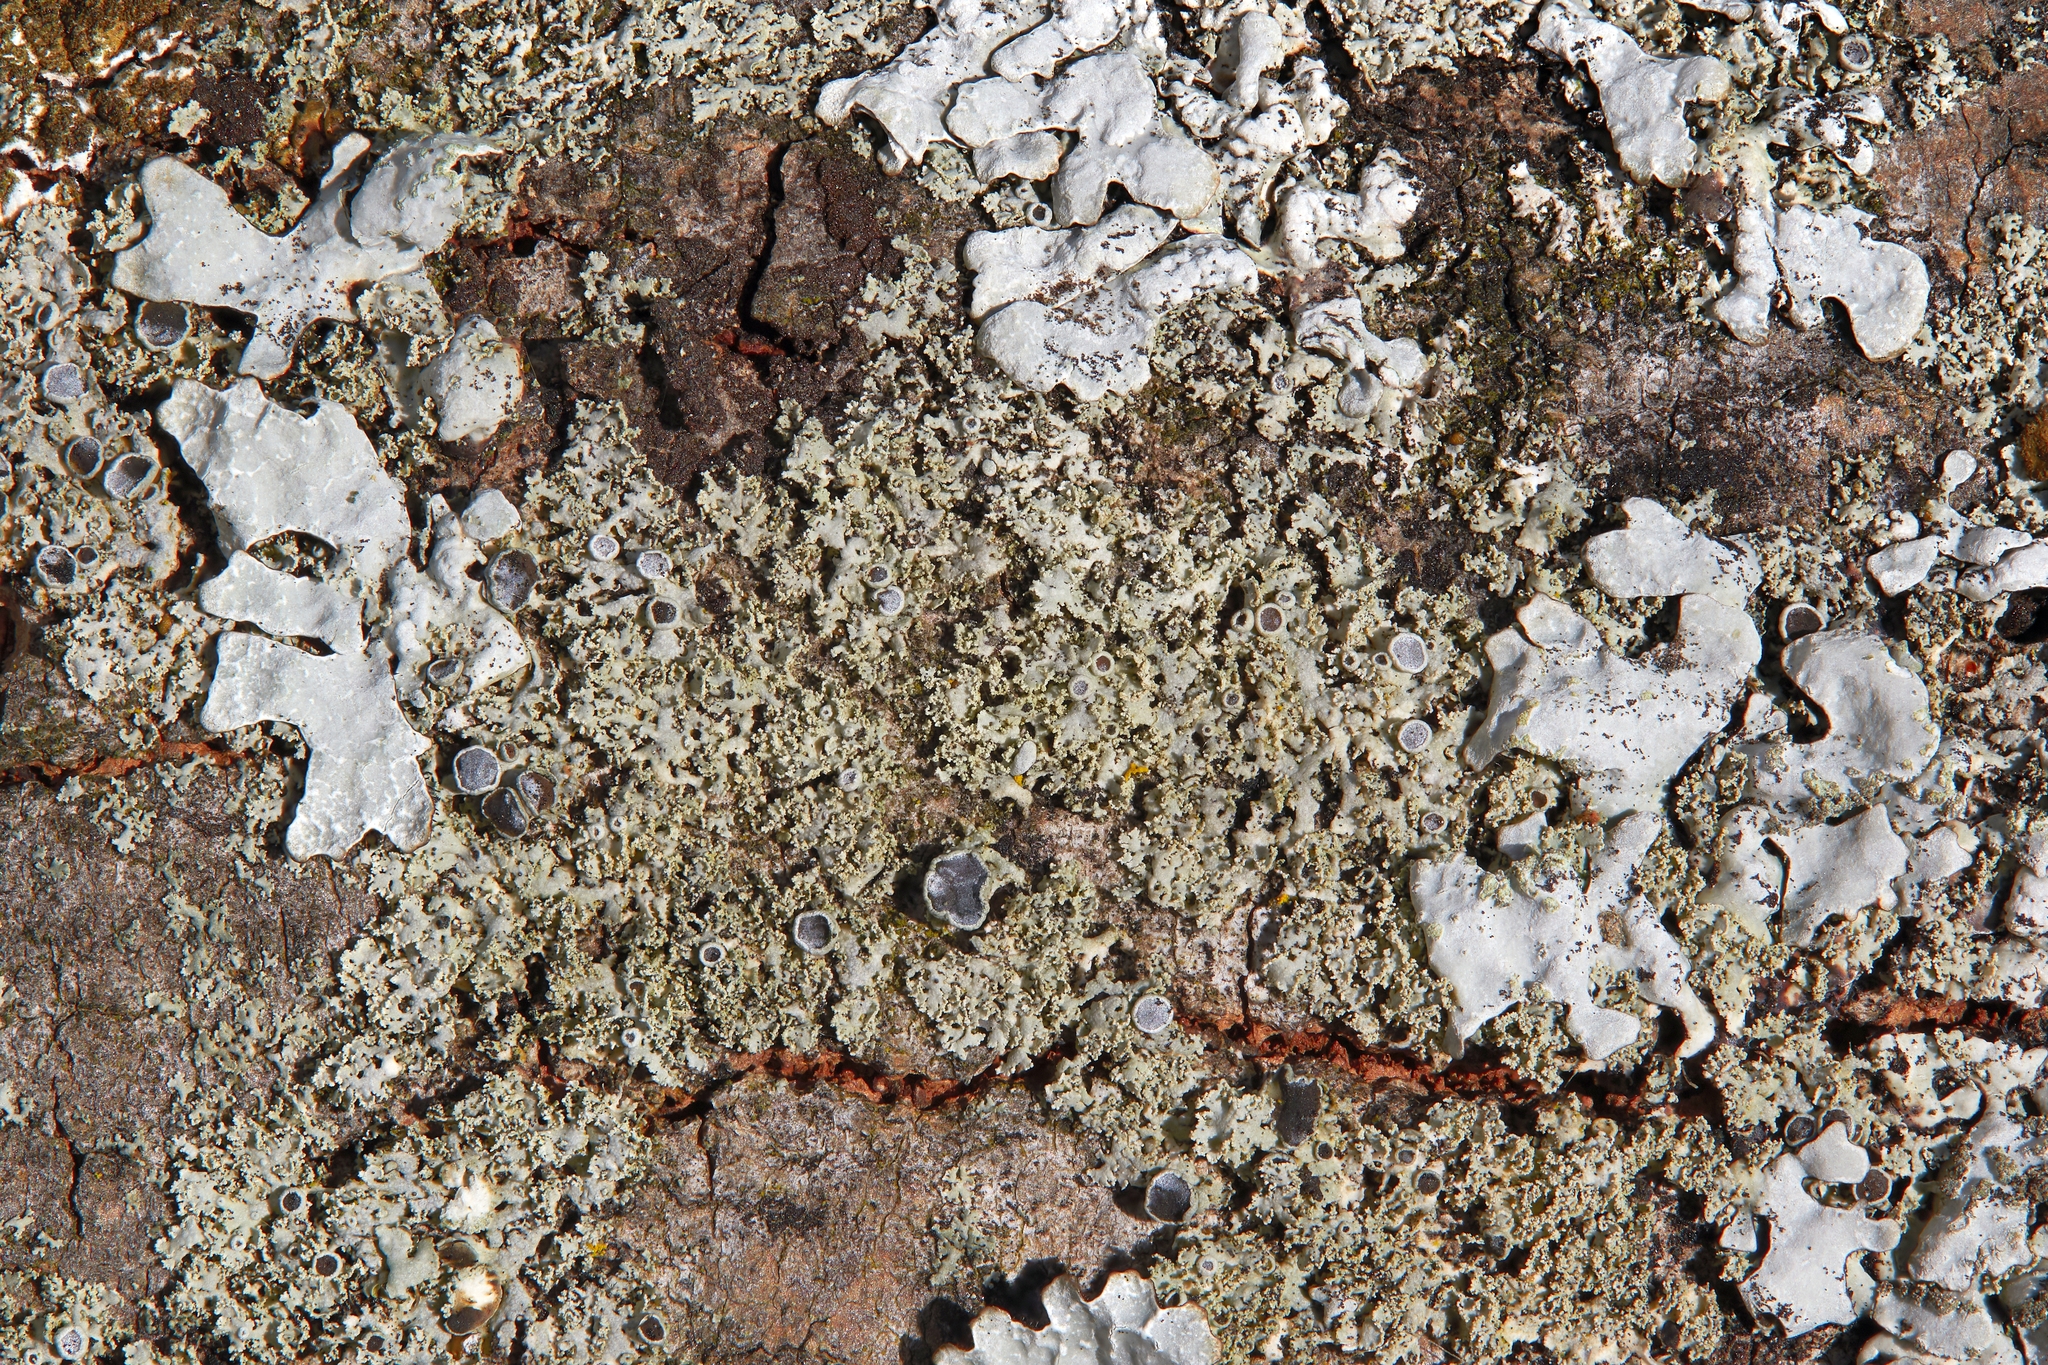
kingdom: Fungi
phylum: Ascomycota
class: Lecanoromycetes
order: Caliciales
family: Physciaceae
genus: Physcia
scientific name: Physcia millegrana
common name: Rosette lichen
